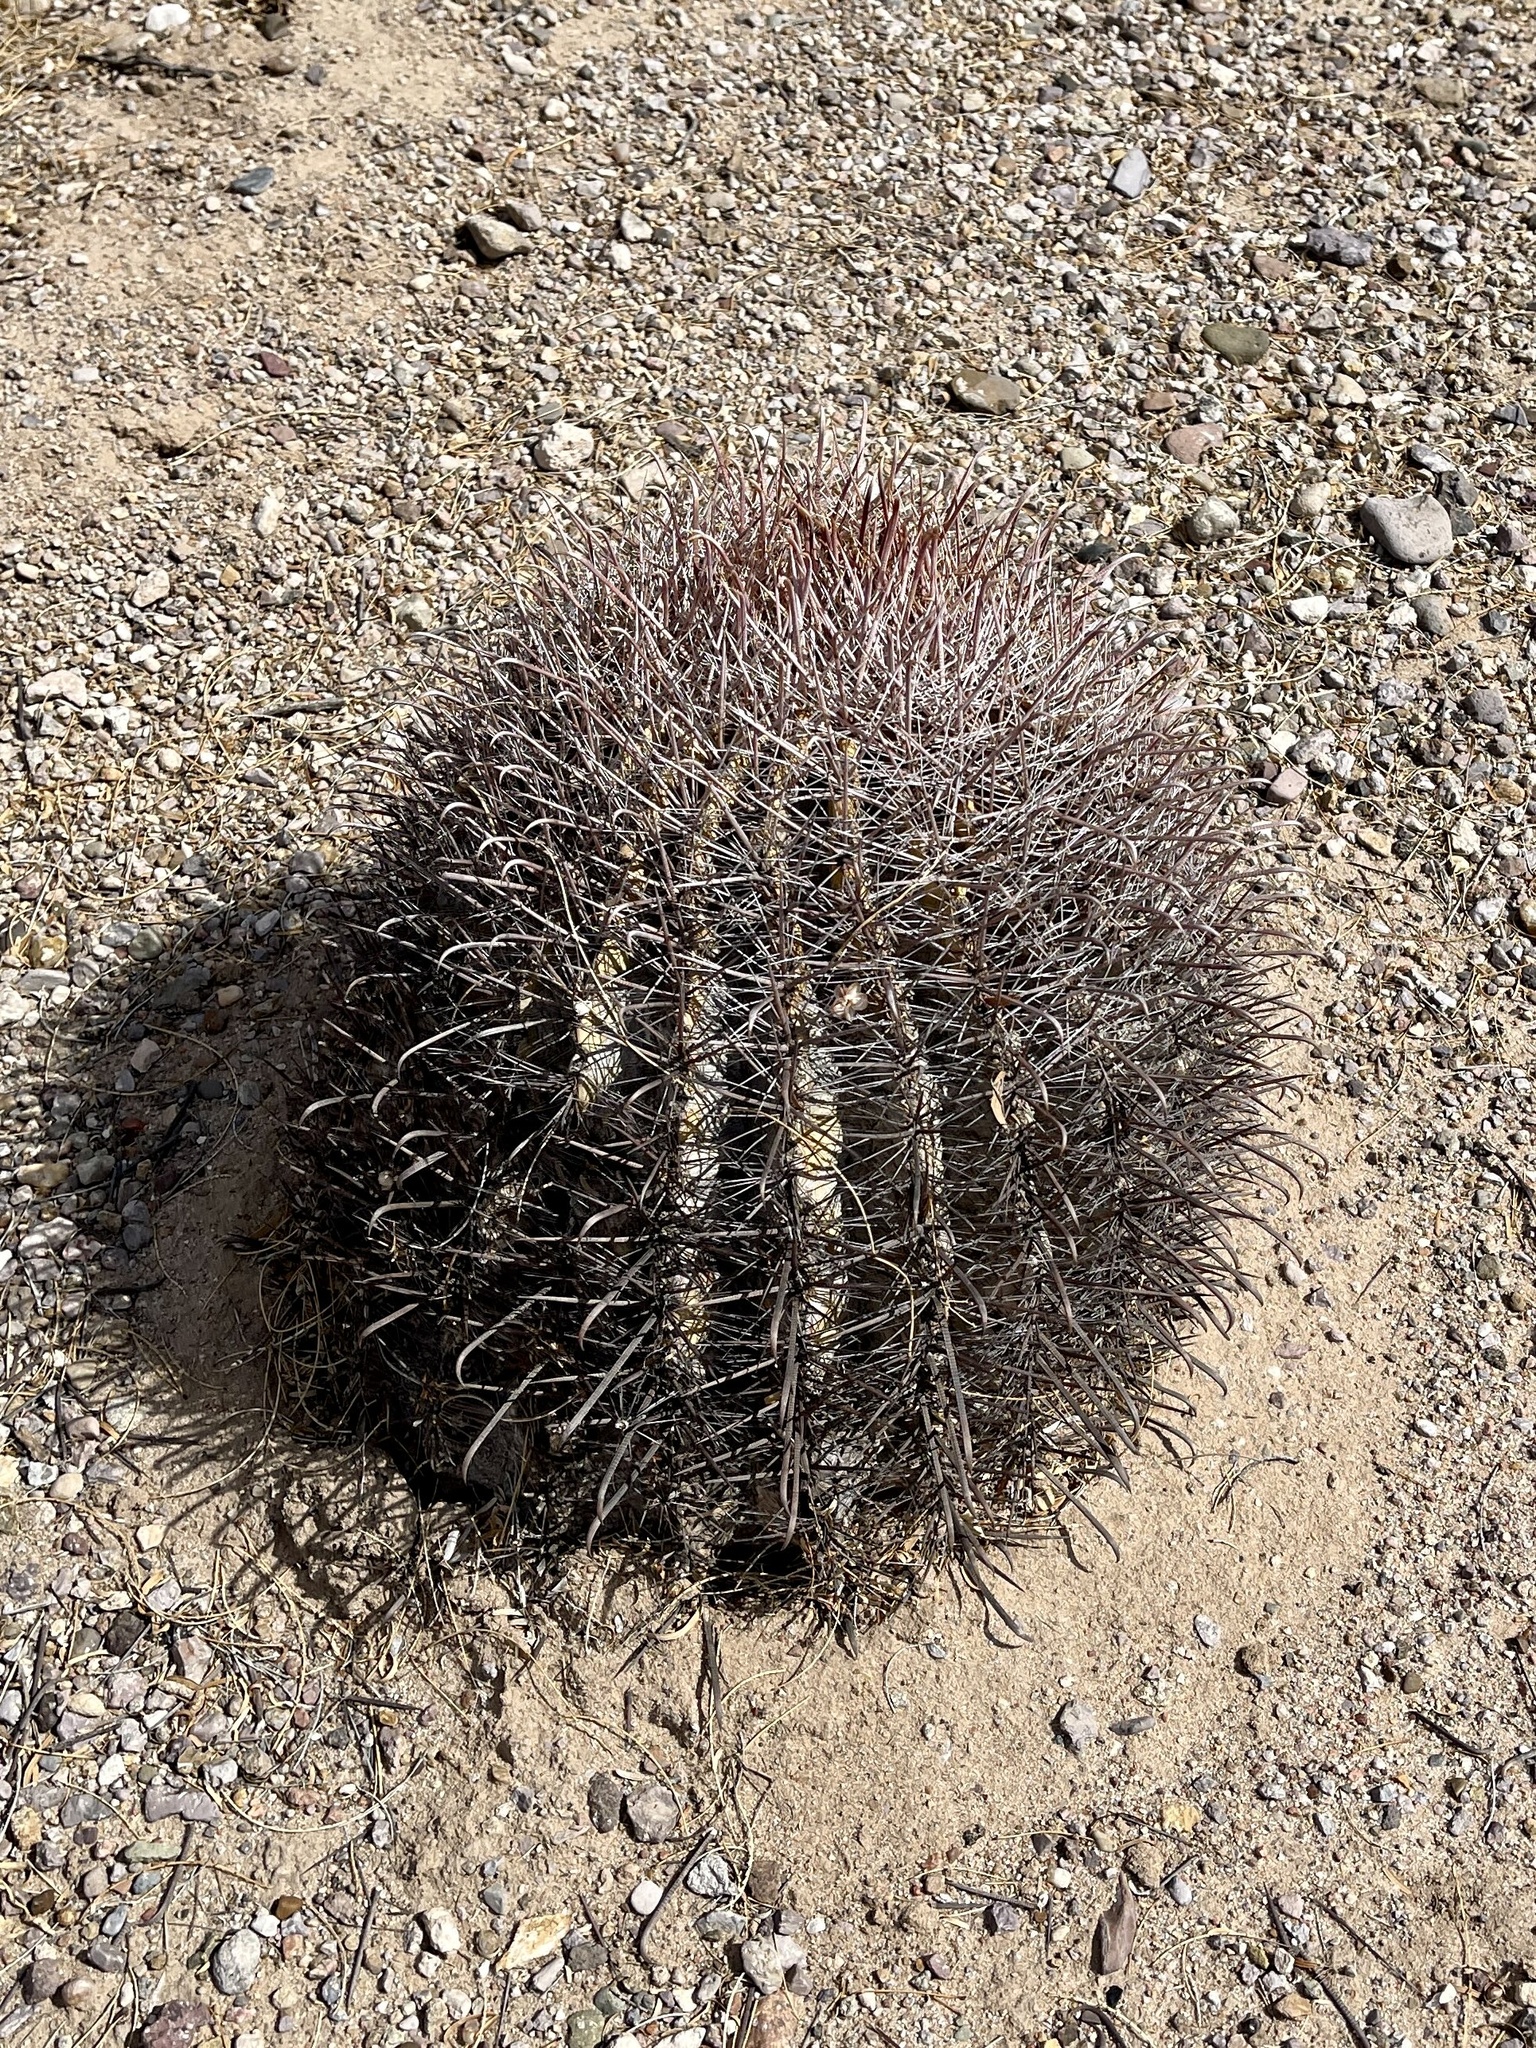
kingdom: Plantae
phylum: Tracheophyta
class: Magnoliopsida
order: Caryophyllales
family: Cactaceae
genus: Ferocactus
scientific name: Ferocactus wislizeni
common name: Candy barrel cactus
